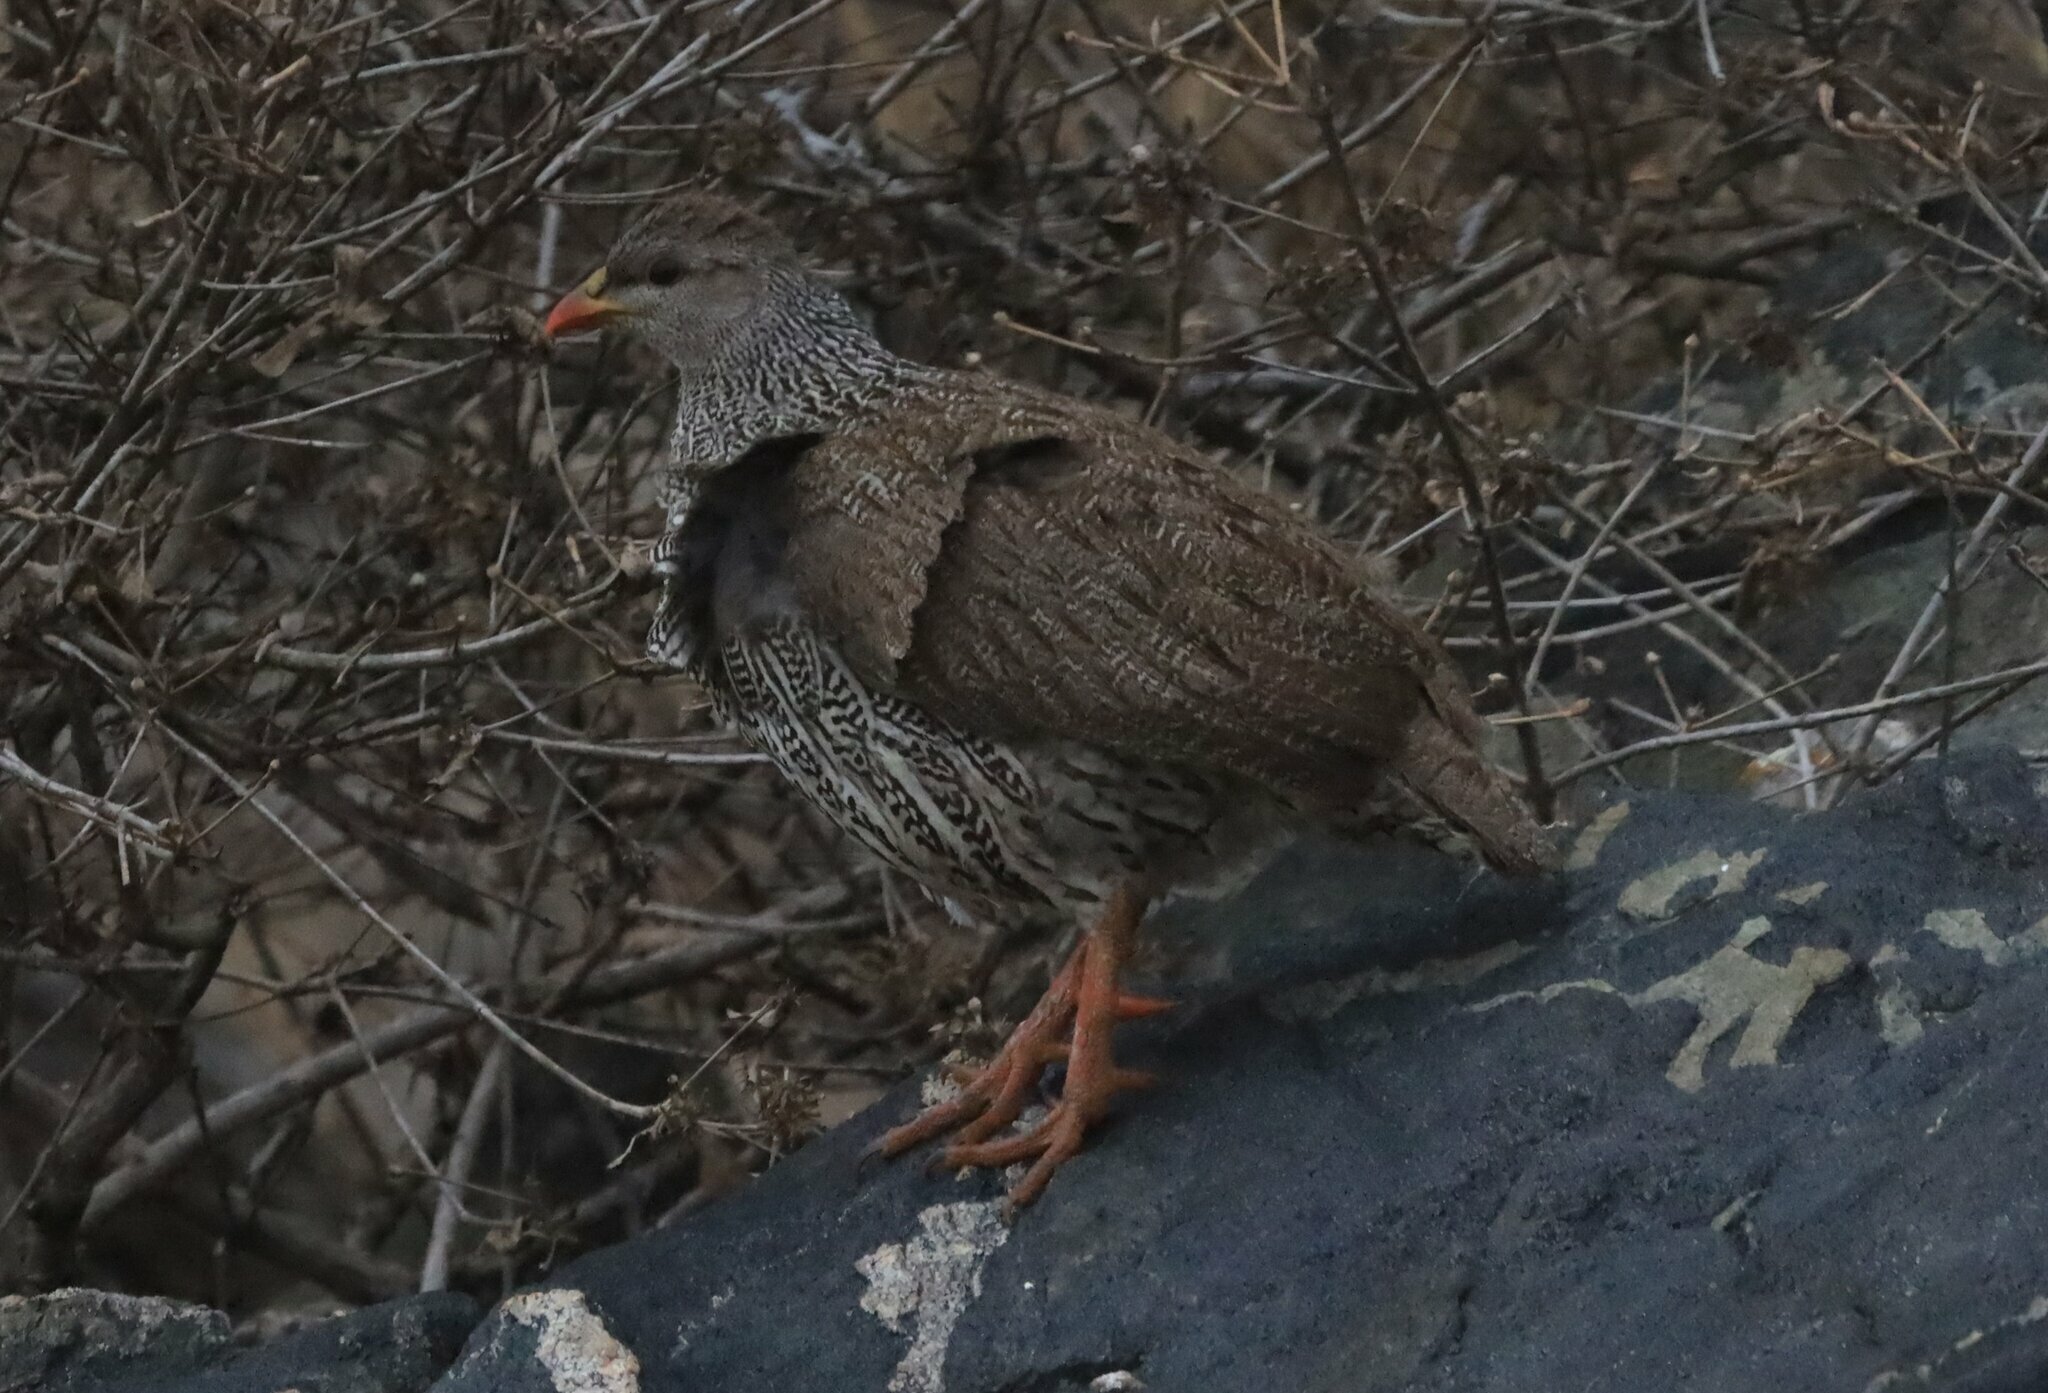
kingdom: Animalia
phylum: Chordata
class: Aves
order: Galliformes
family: Phasianidae
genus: Pternistis
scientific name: Pternistis natalensis
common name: Natal spurfowl
